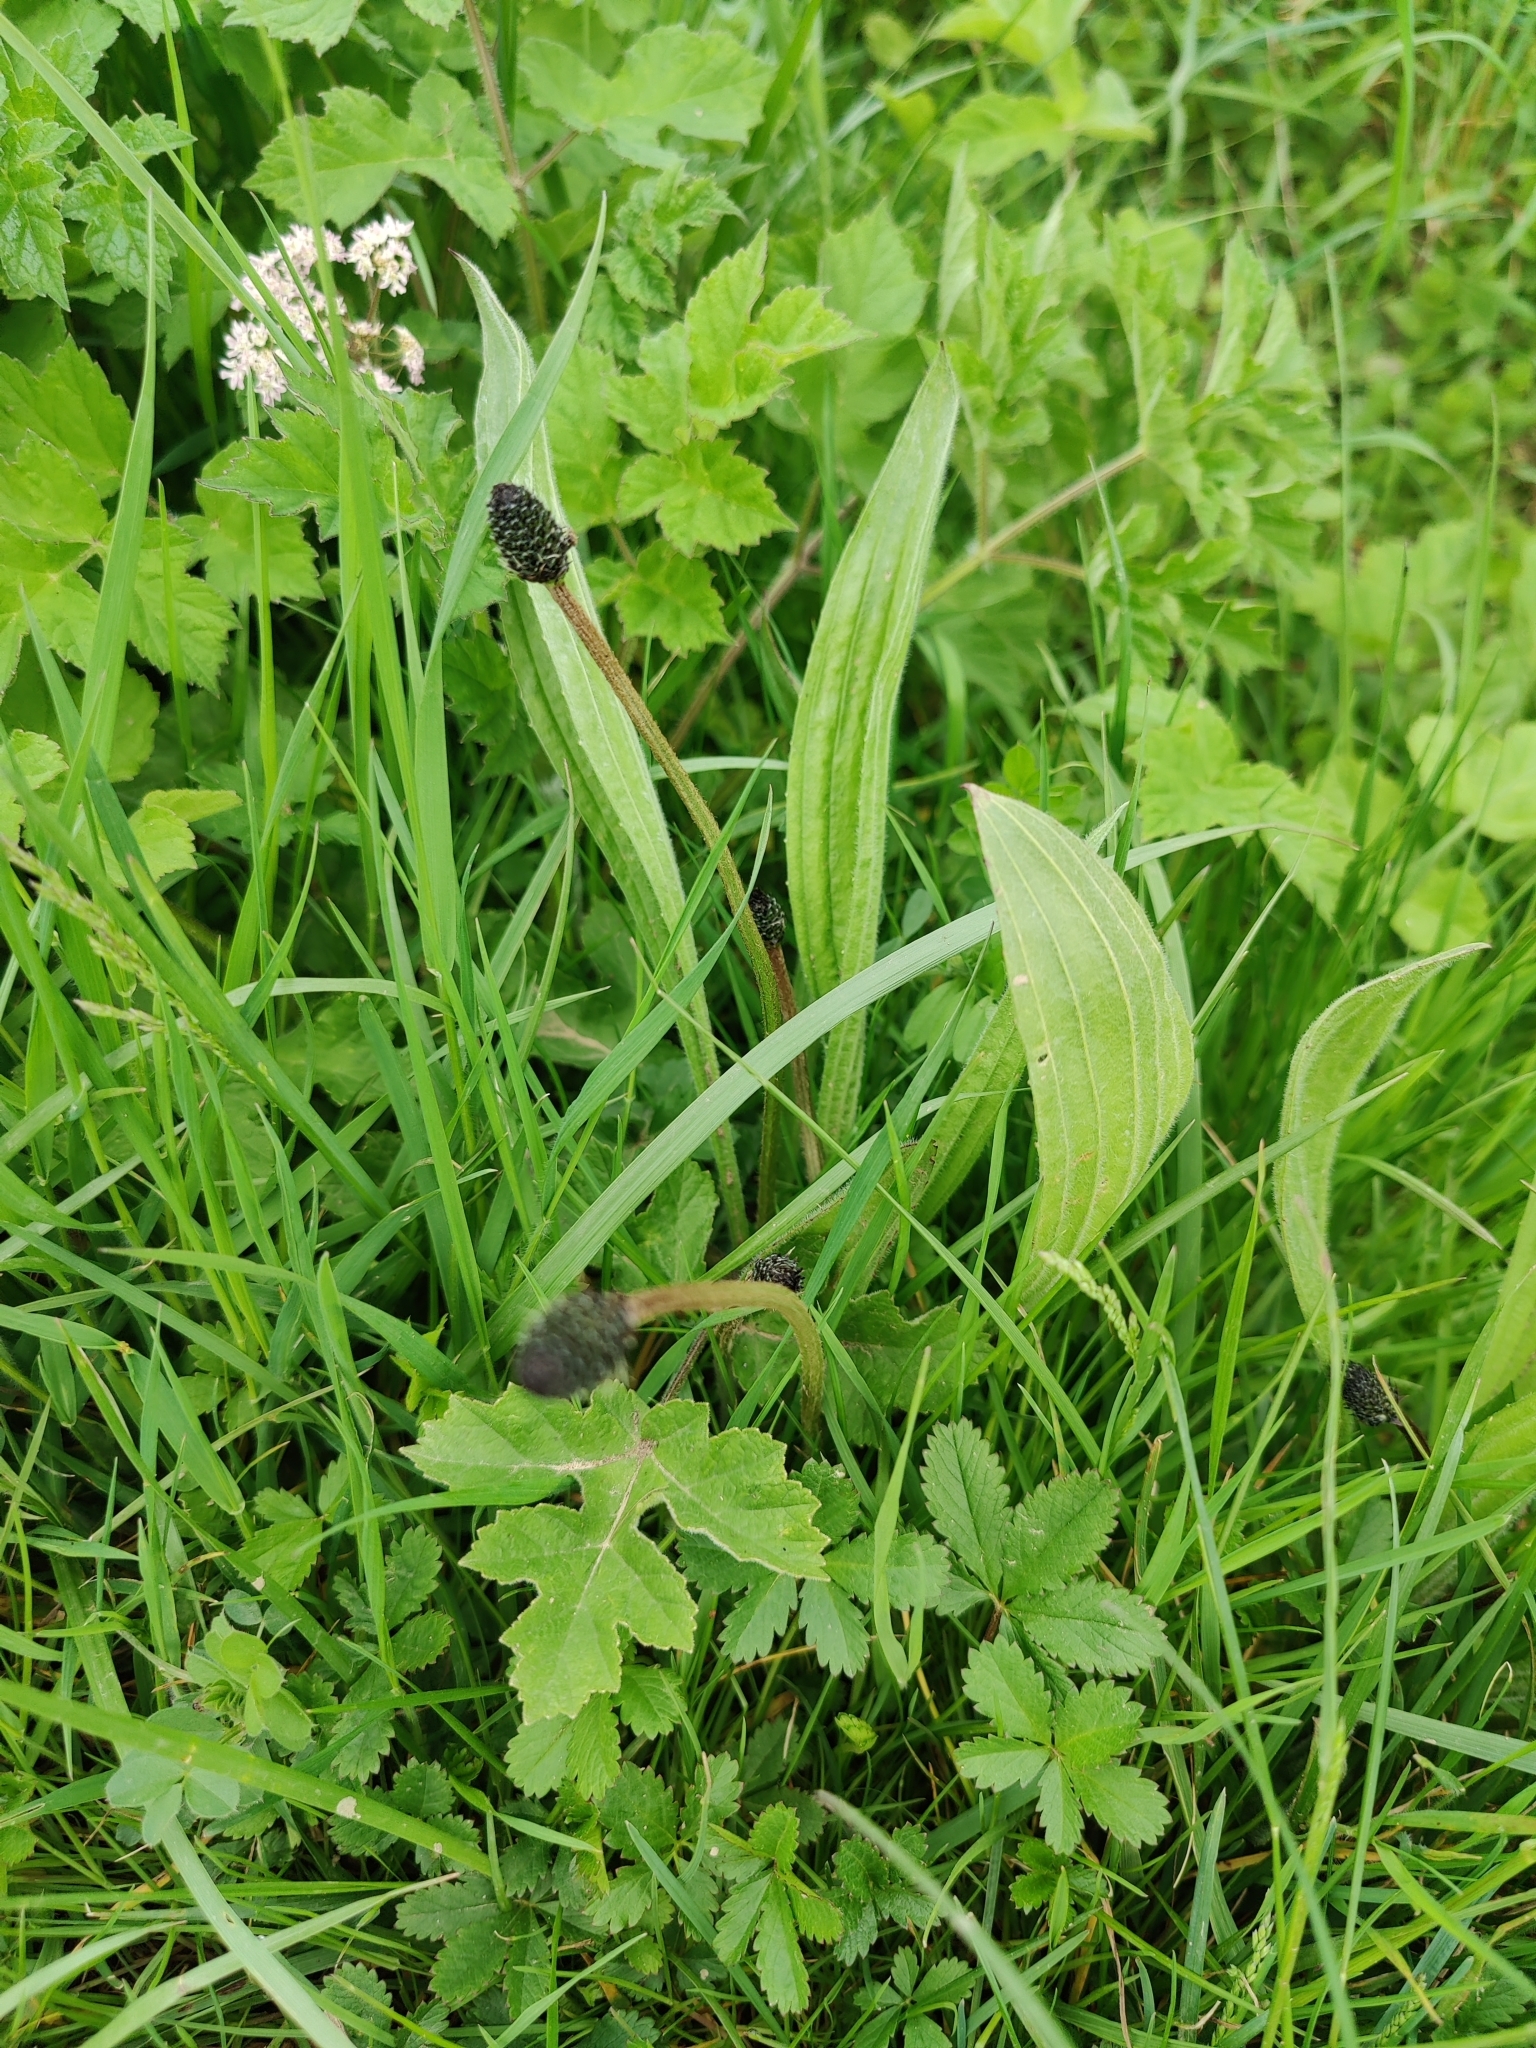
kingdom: Plantae
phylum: Tracheophyta
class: Magnoliopsida
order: Lamiales
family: Plantaginaceae
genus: Plantago
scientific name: Plantago lanceolata
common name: Ribwort plantain
